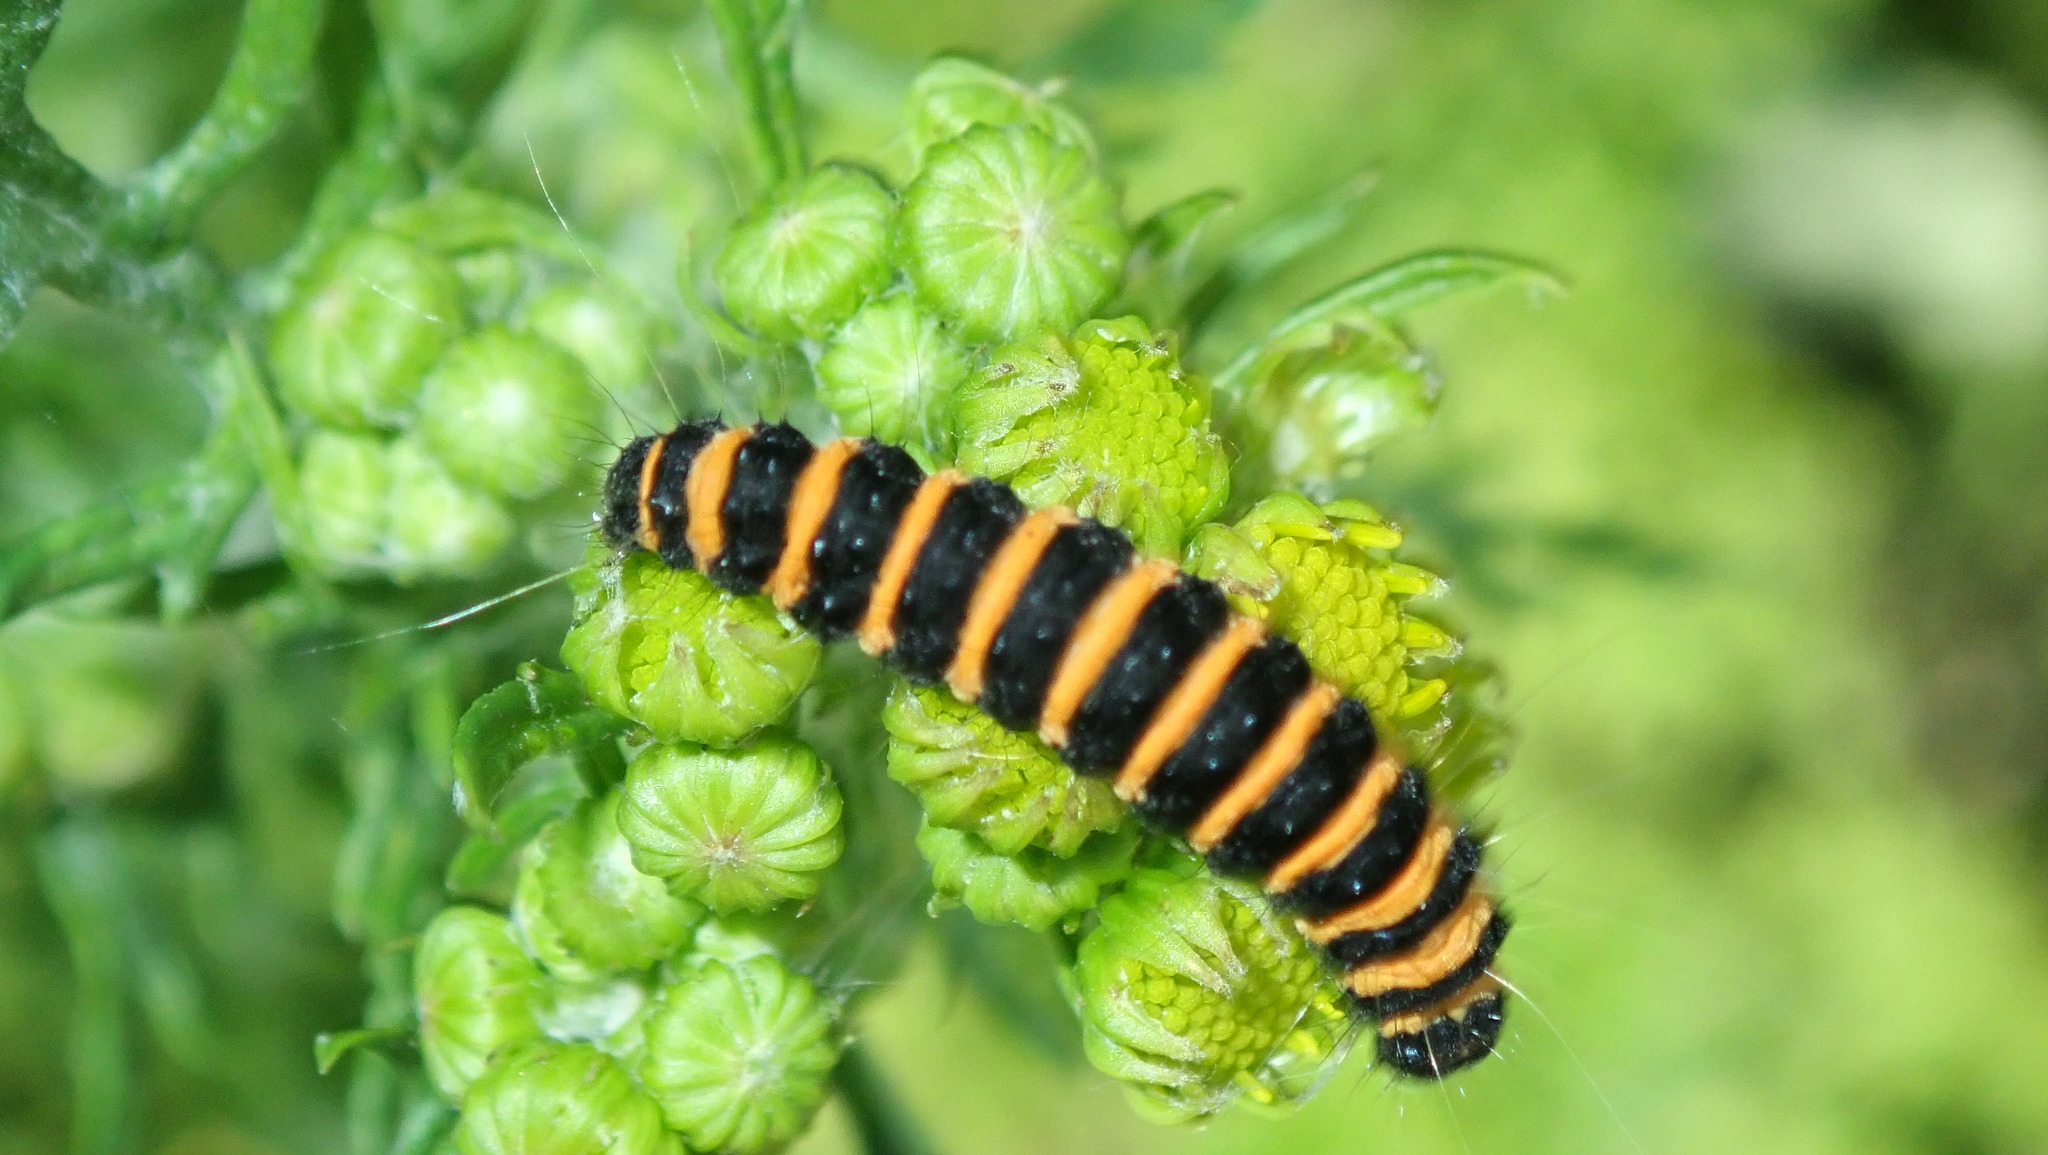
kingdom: Animalia
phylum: Arthropoda
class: Insecta
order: Lepidoptera
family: Erebidae
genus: Tyria
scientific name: Tyria jacobaeae
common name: Cinnabar
